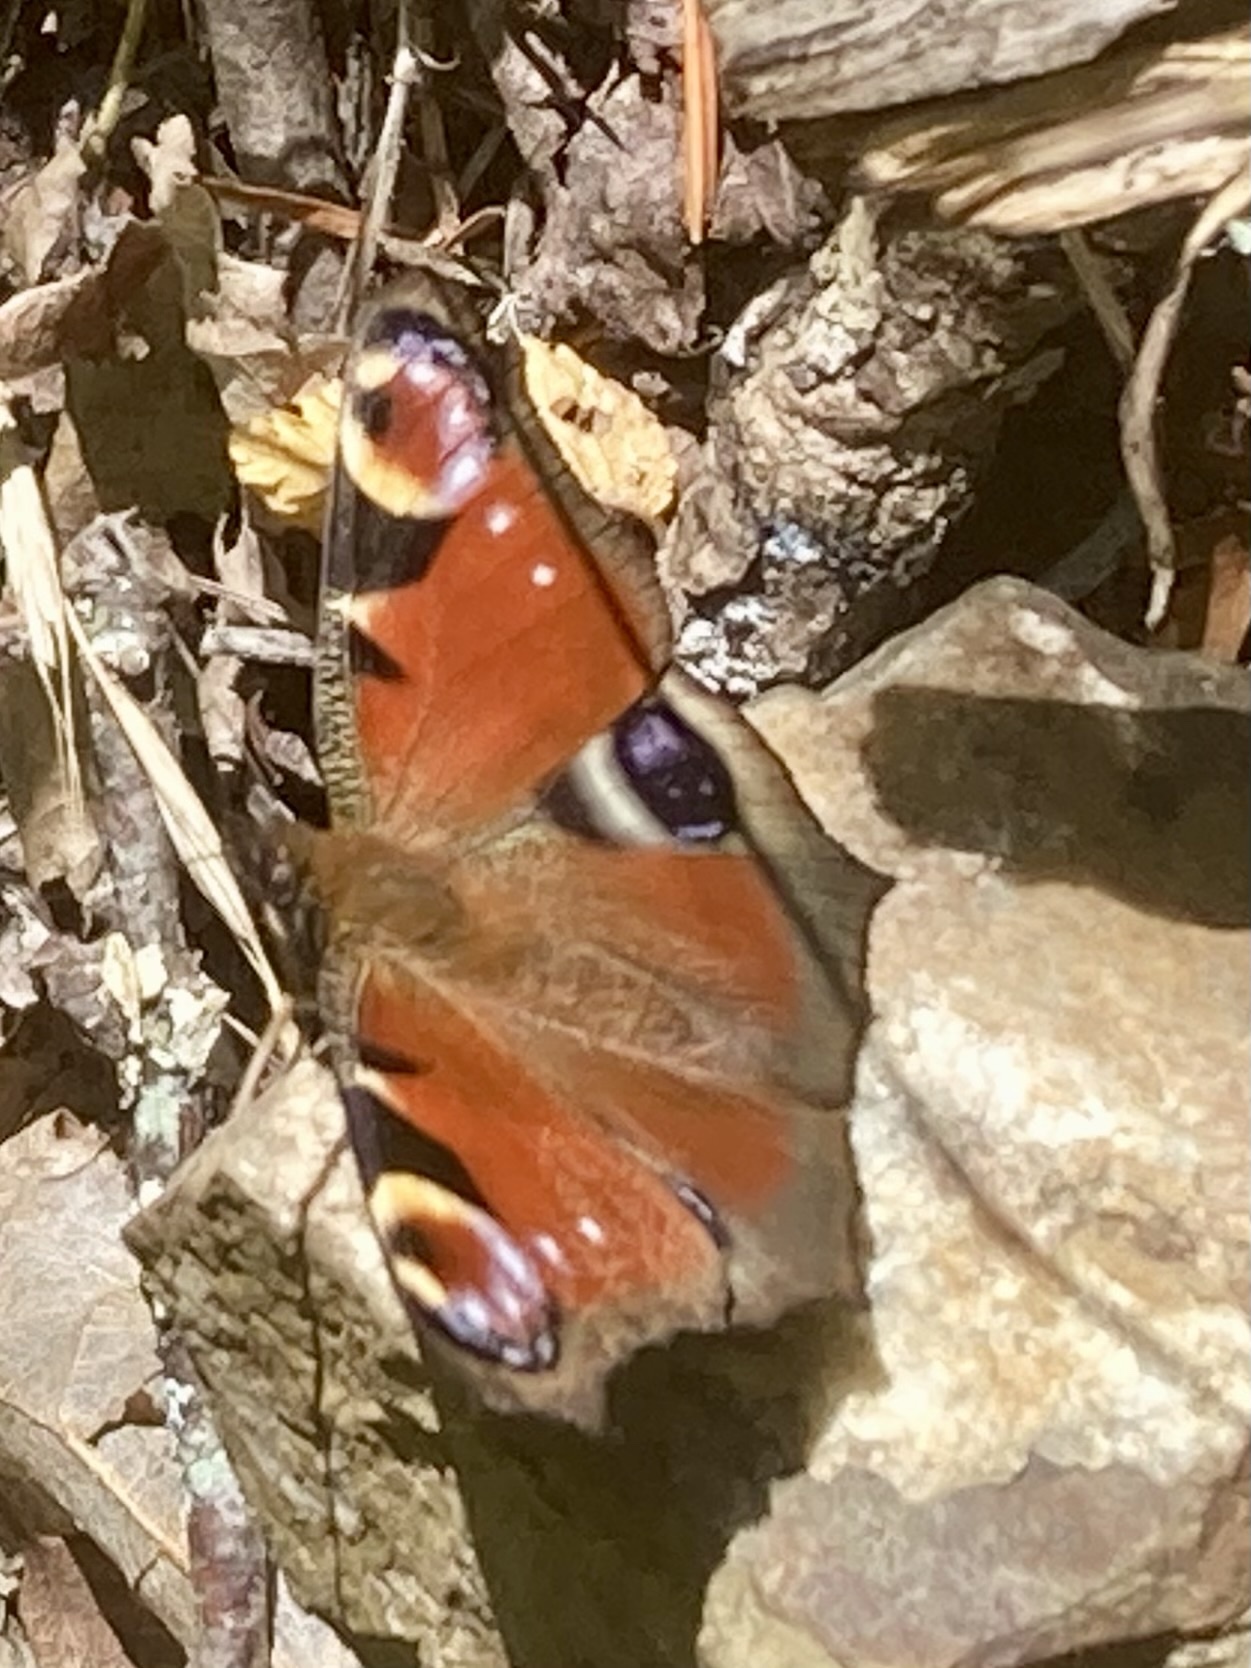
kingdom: Animalia
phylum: Arthropoda
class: Insecta
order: Lepidoptera
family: Nymphalidae
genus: Aglais
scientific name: Aglais io
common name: Peacock
